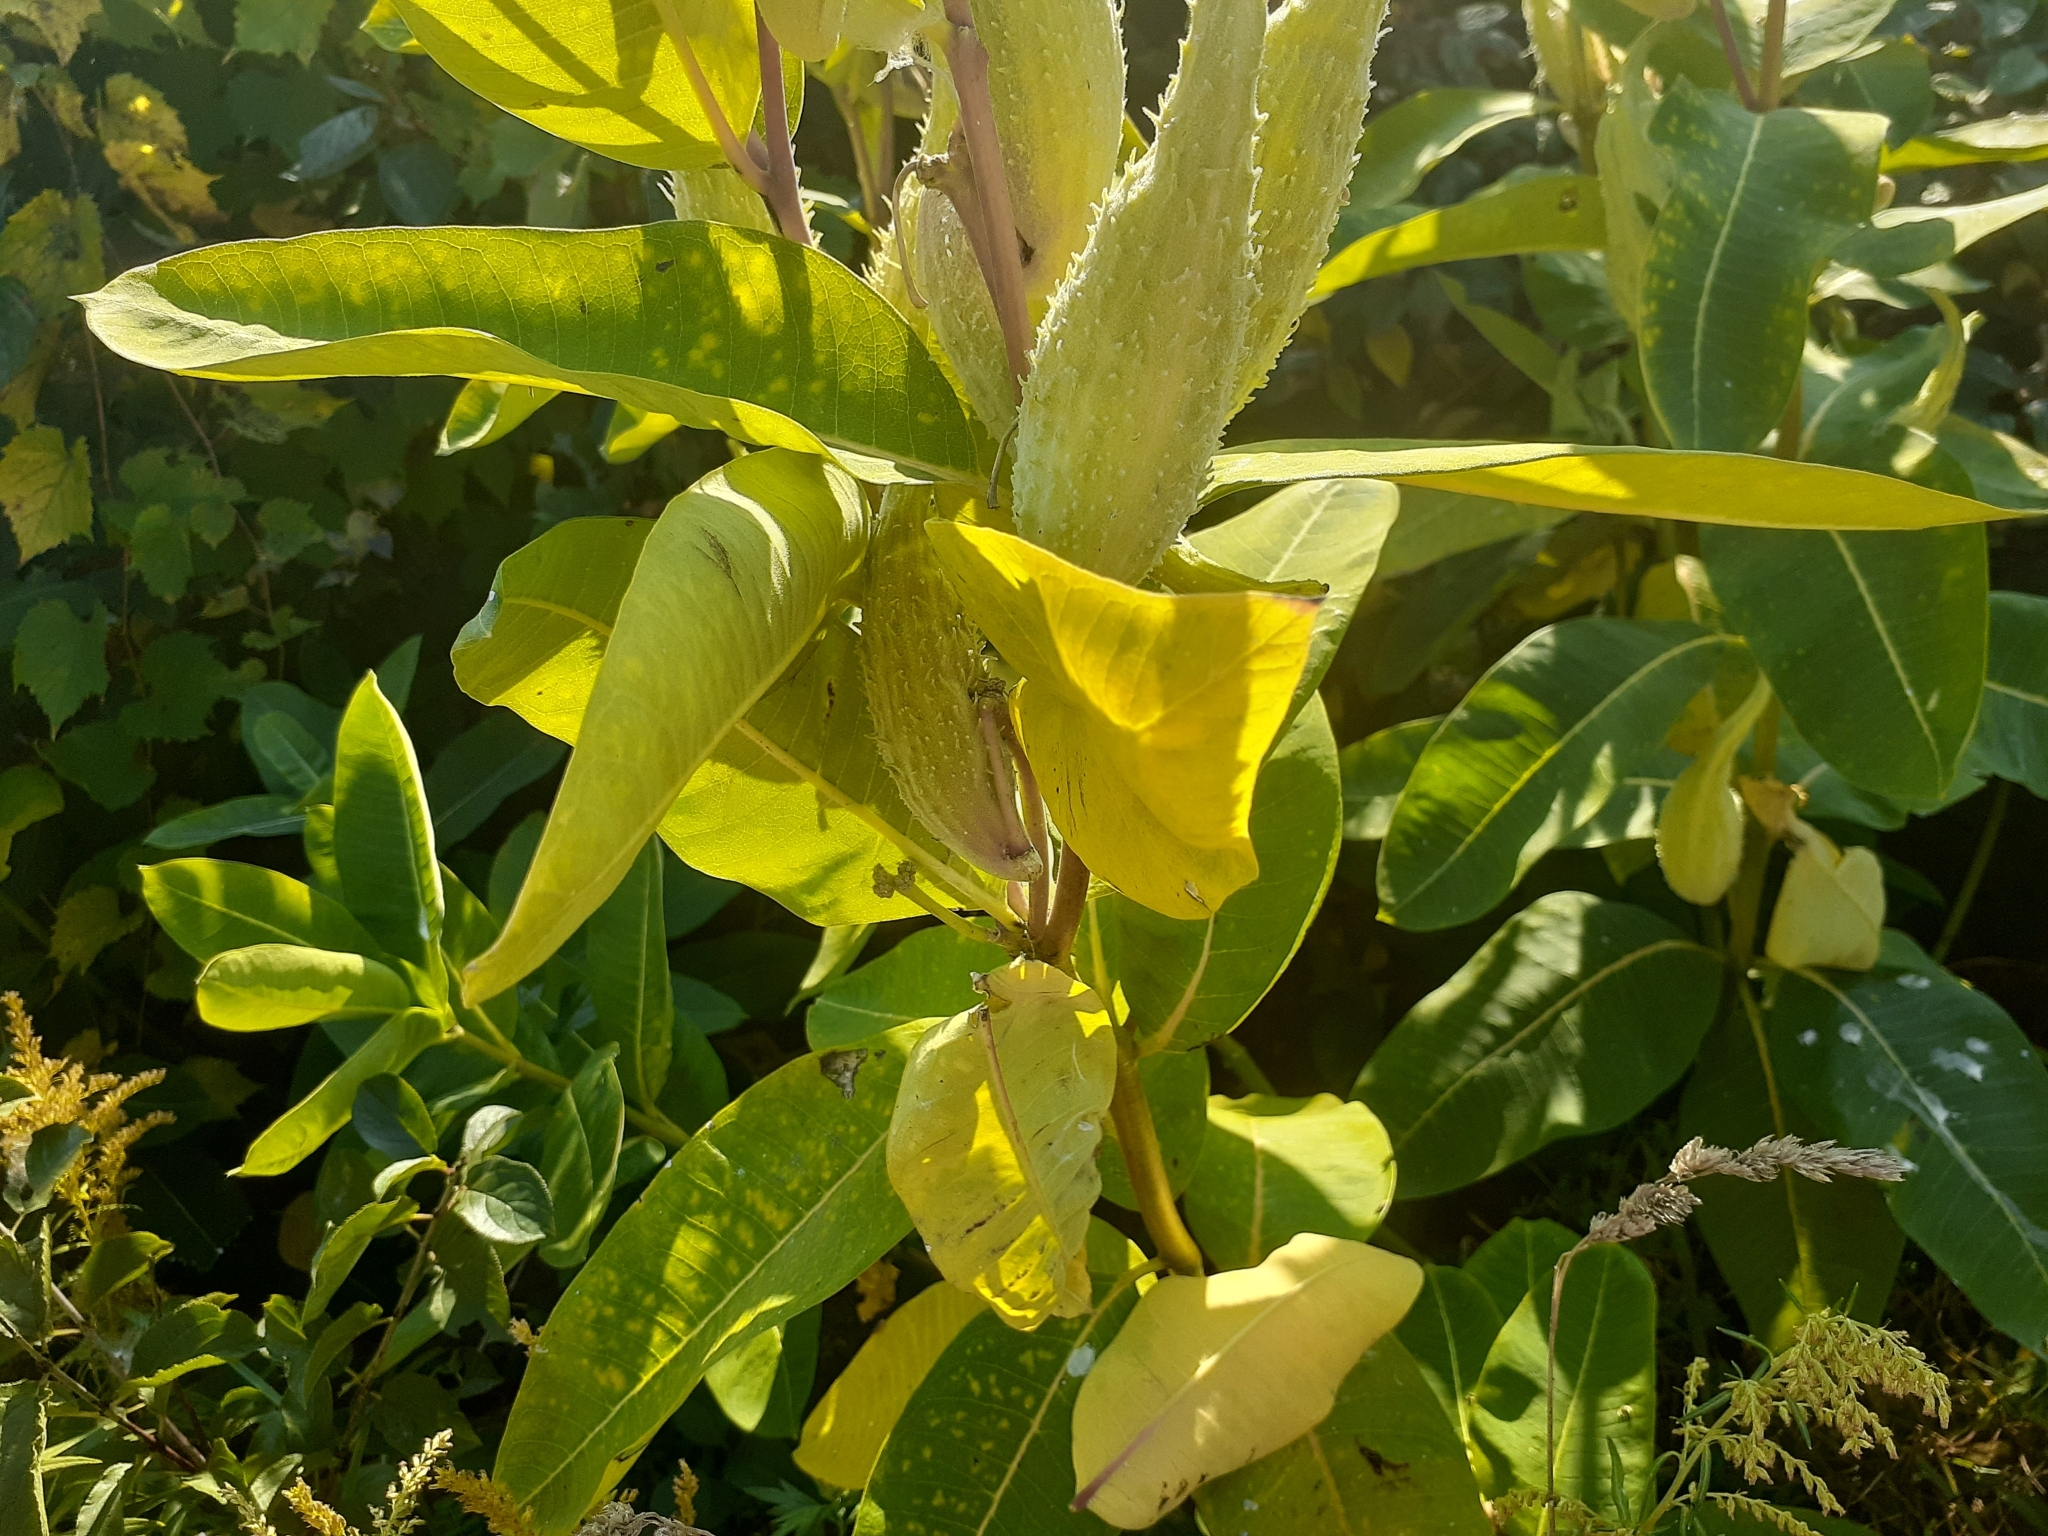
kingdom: Plantae
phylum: Tracheophyta
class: Magnoliopsida
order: Gentianales
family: Apocynaceae
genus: Asclepias
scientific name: Asclepias syriaca
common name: Common milkweed
